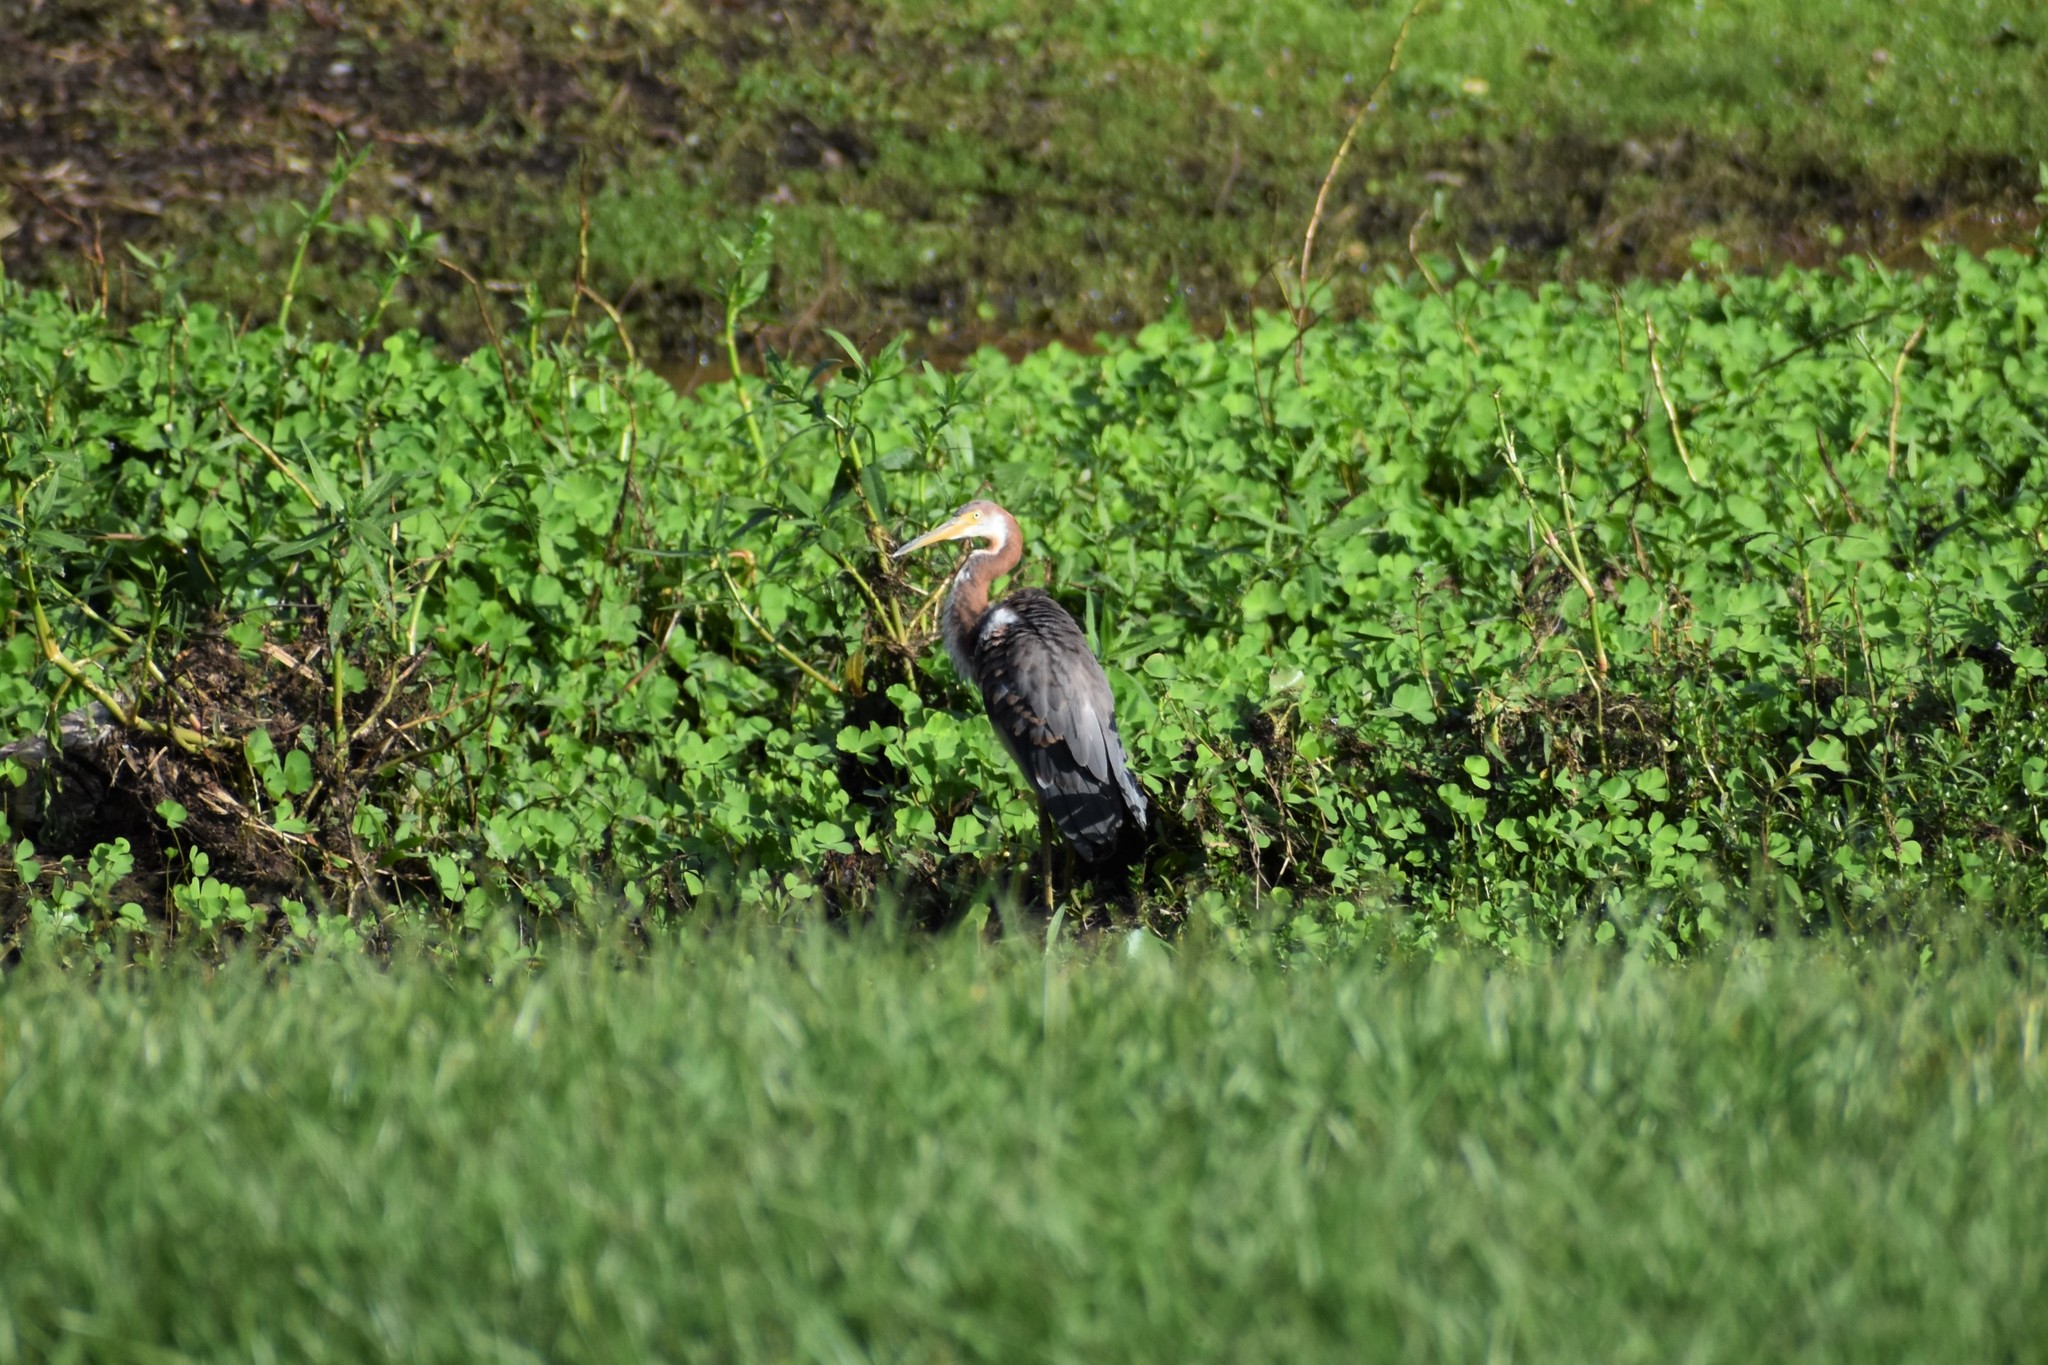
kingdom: Animalia
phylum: Chordata
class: Aves
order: Pelecaniformes
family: Ardeidae
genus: Egretta
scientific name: Egretta tricolor
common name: Tricolored heron
